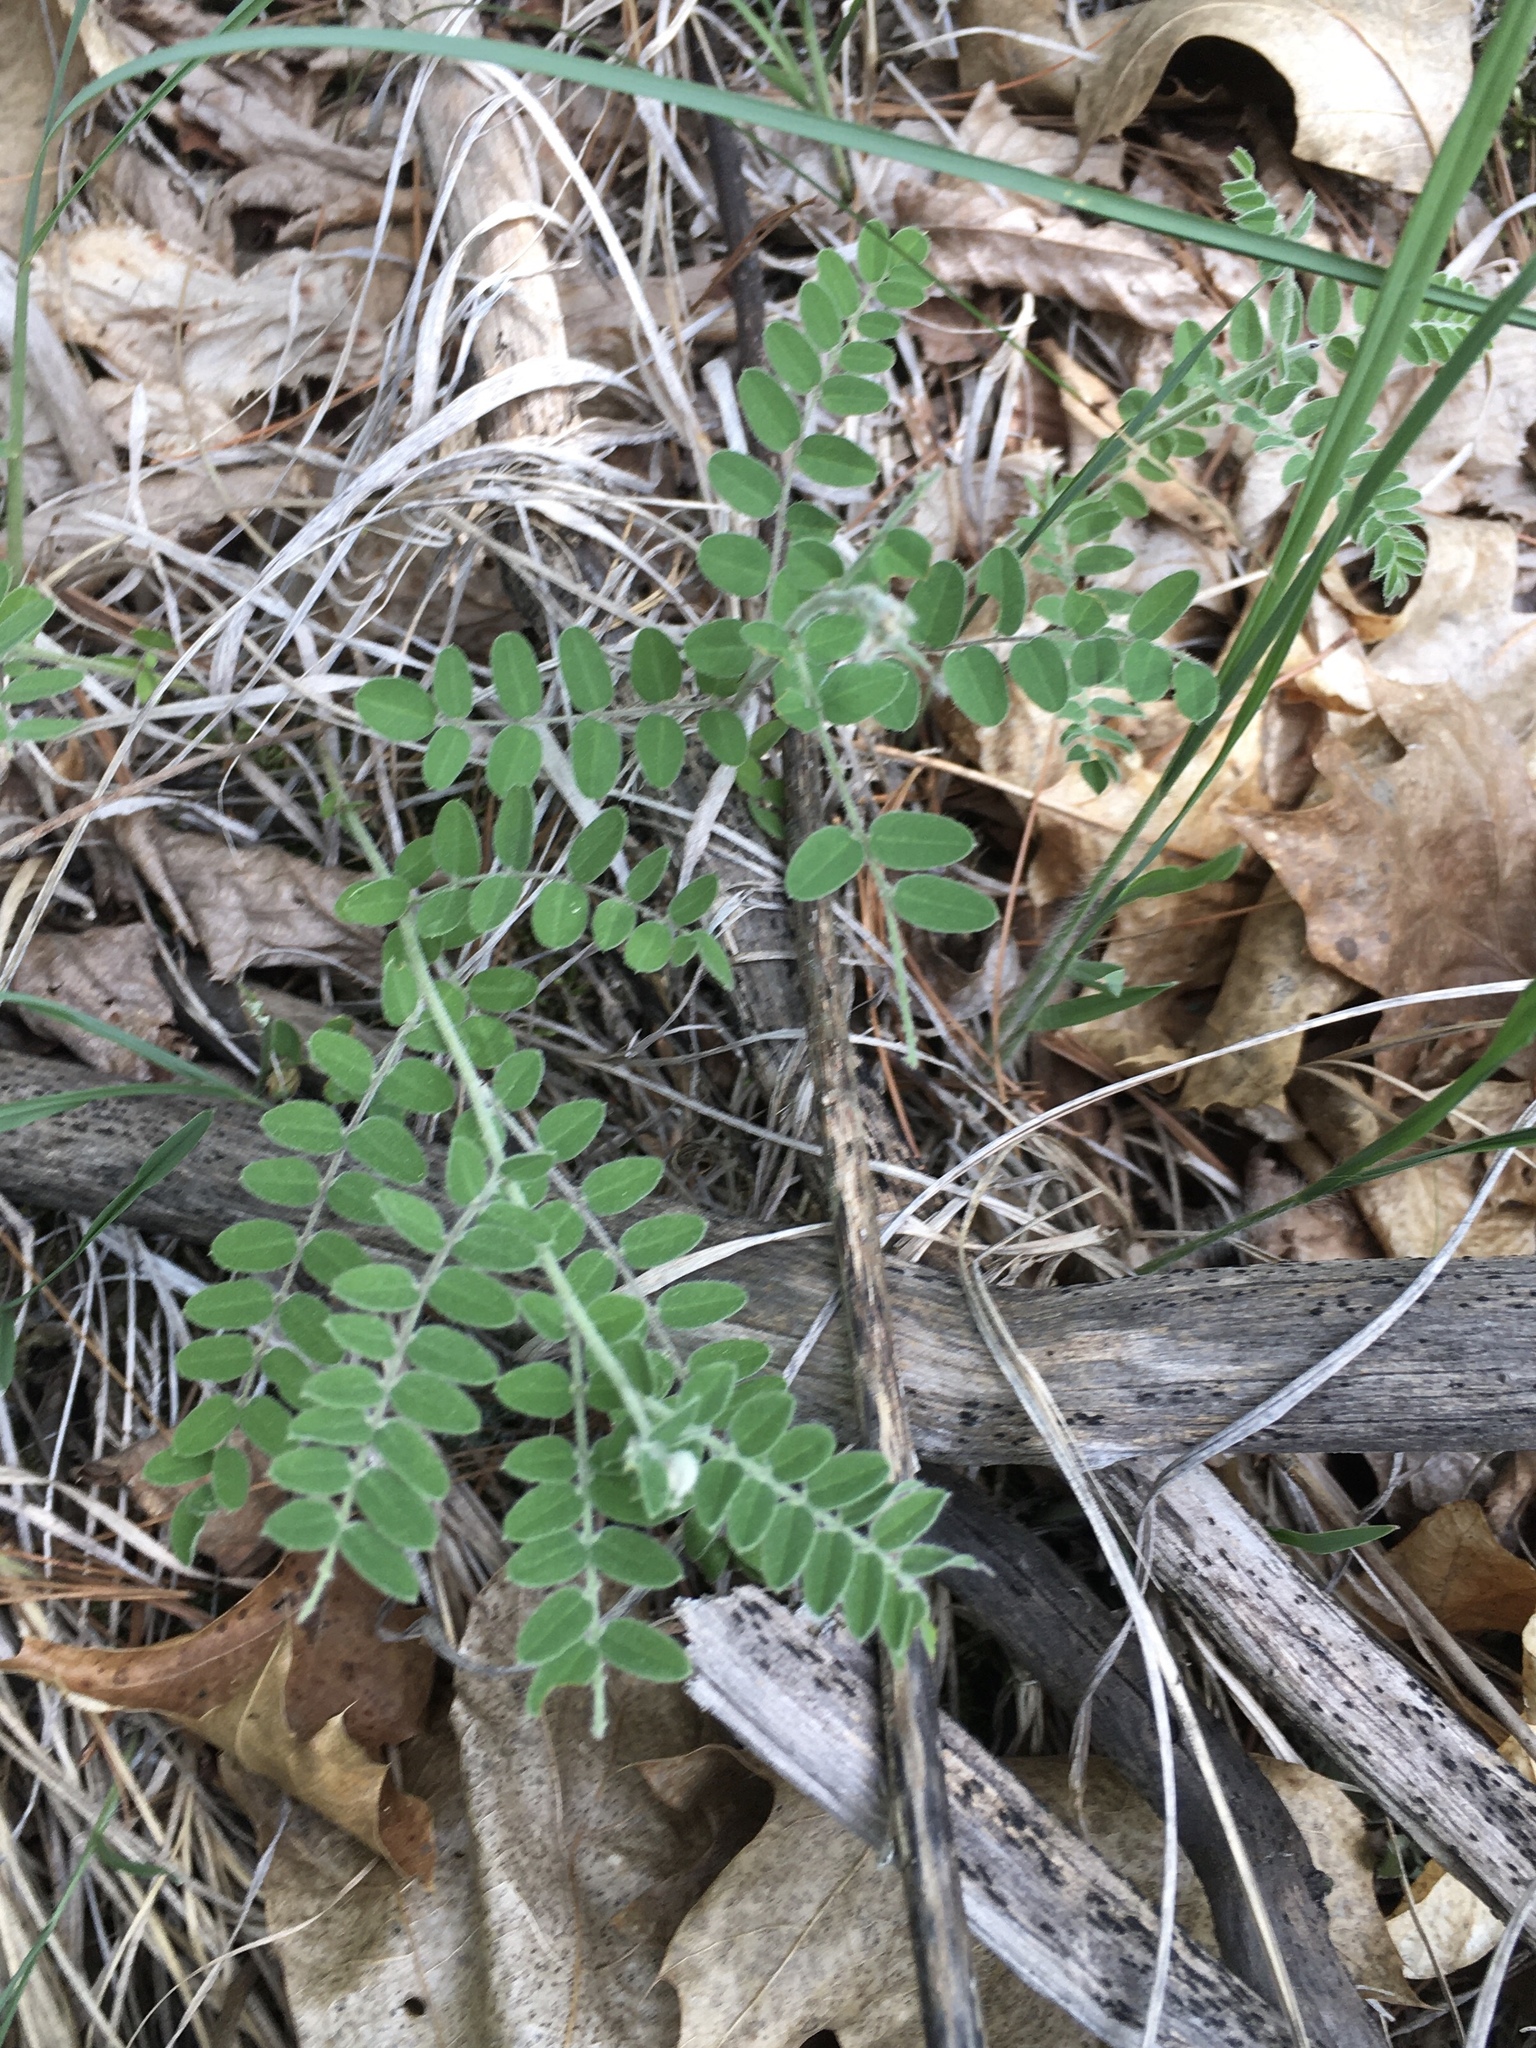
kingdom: Plantae
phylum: Tracheophyta
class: Magnoliopsida
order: Fabales
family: Fabaceae
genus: Amorpha
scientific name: Amorpha canescens
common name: Leadplant
